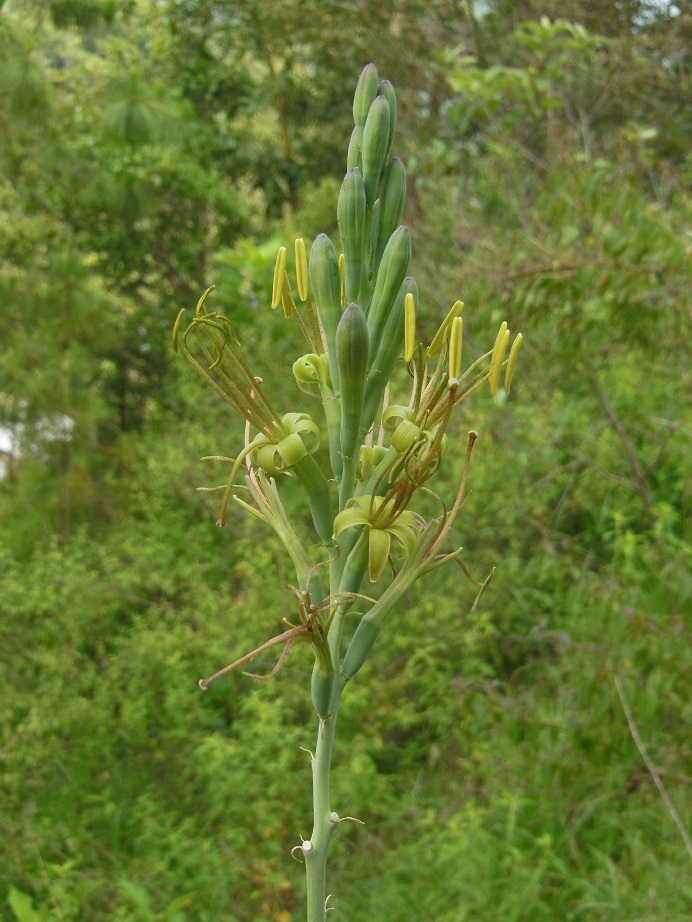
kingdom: Plantae
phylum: Tracheophyta
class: Liliopsida
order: Asparagales
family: Asparagaceae
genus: Agave
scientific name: Agave pubescens
